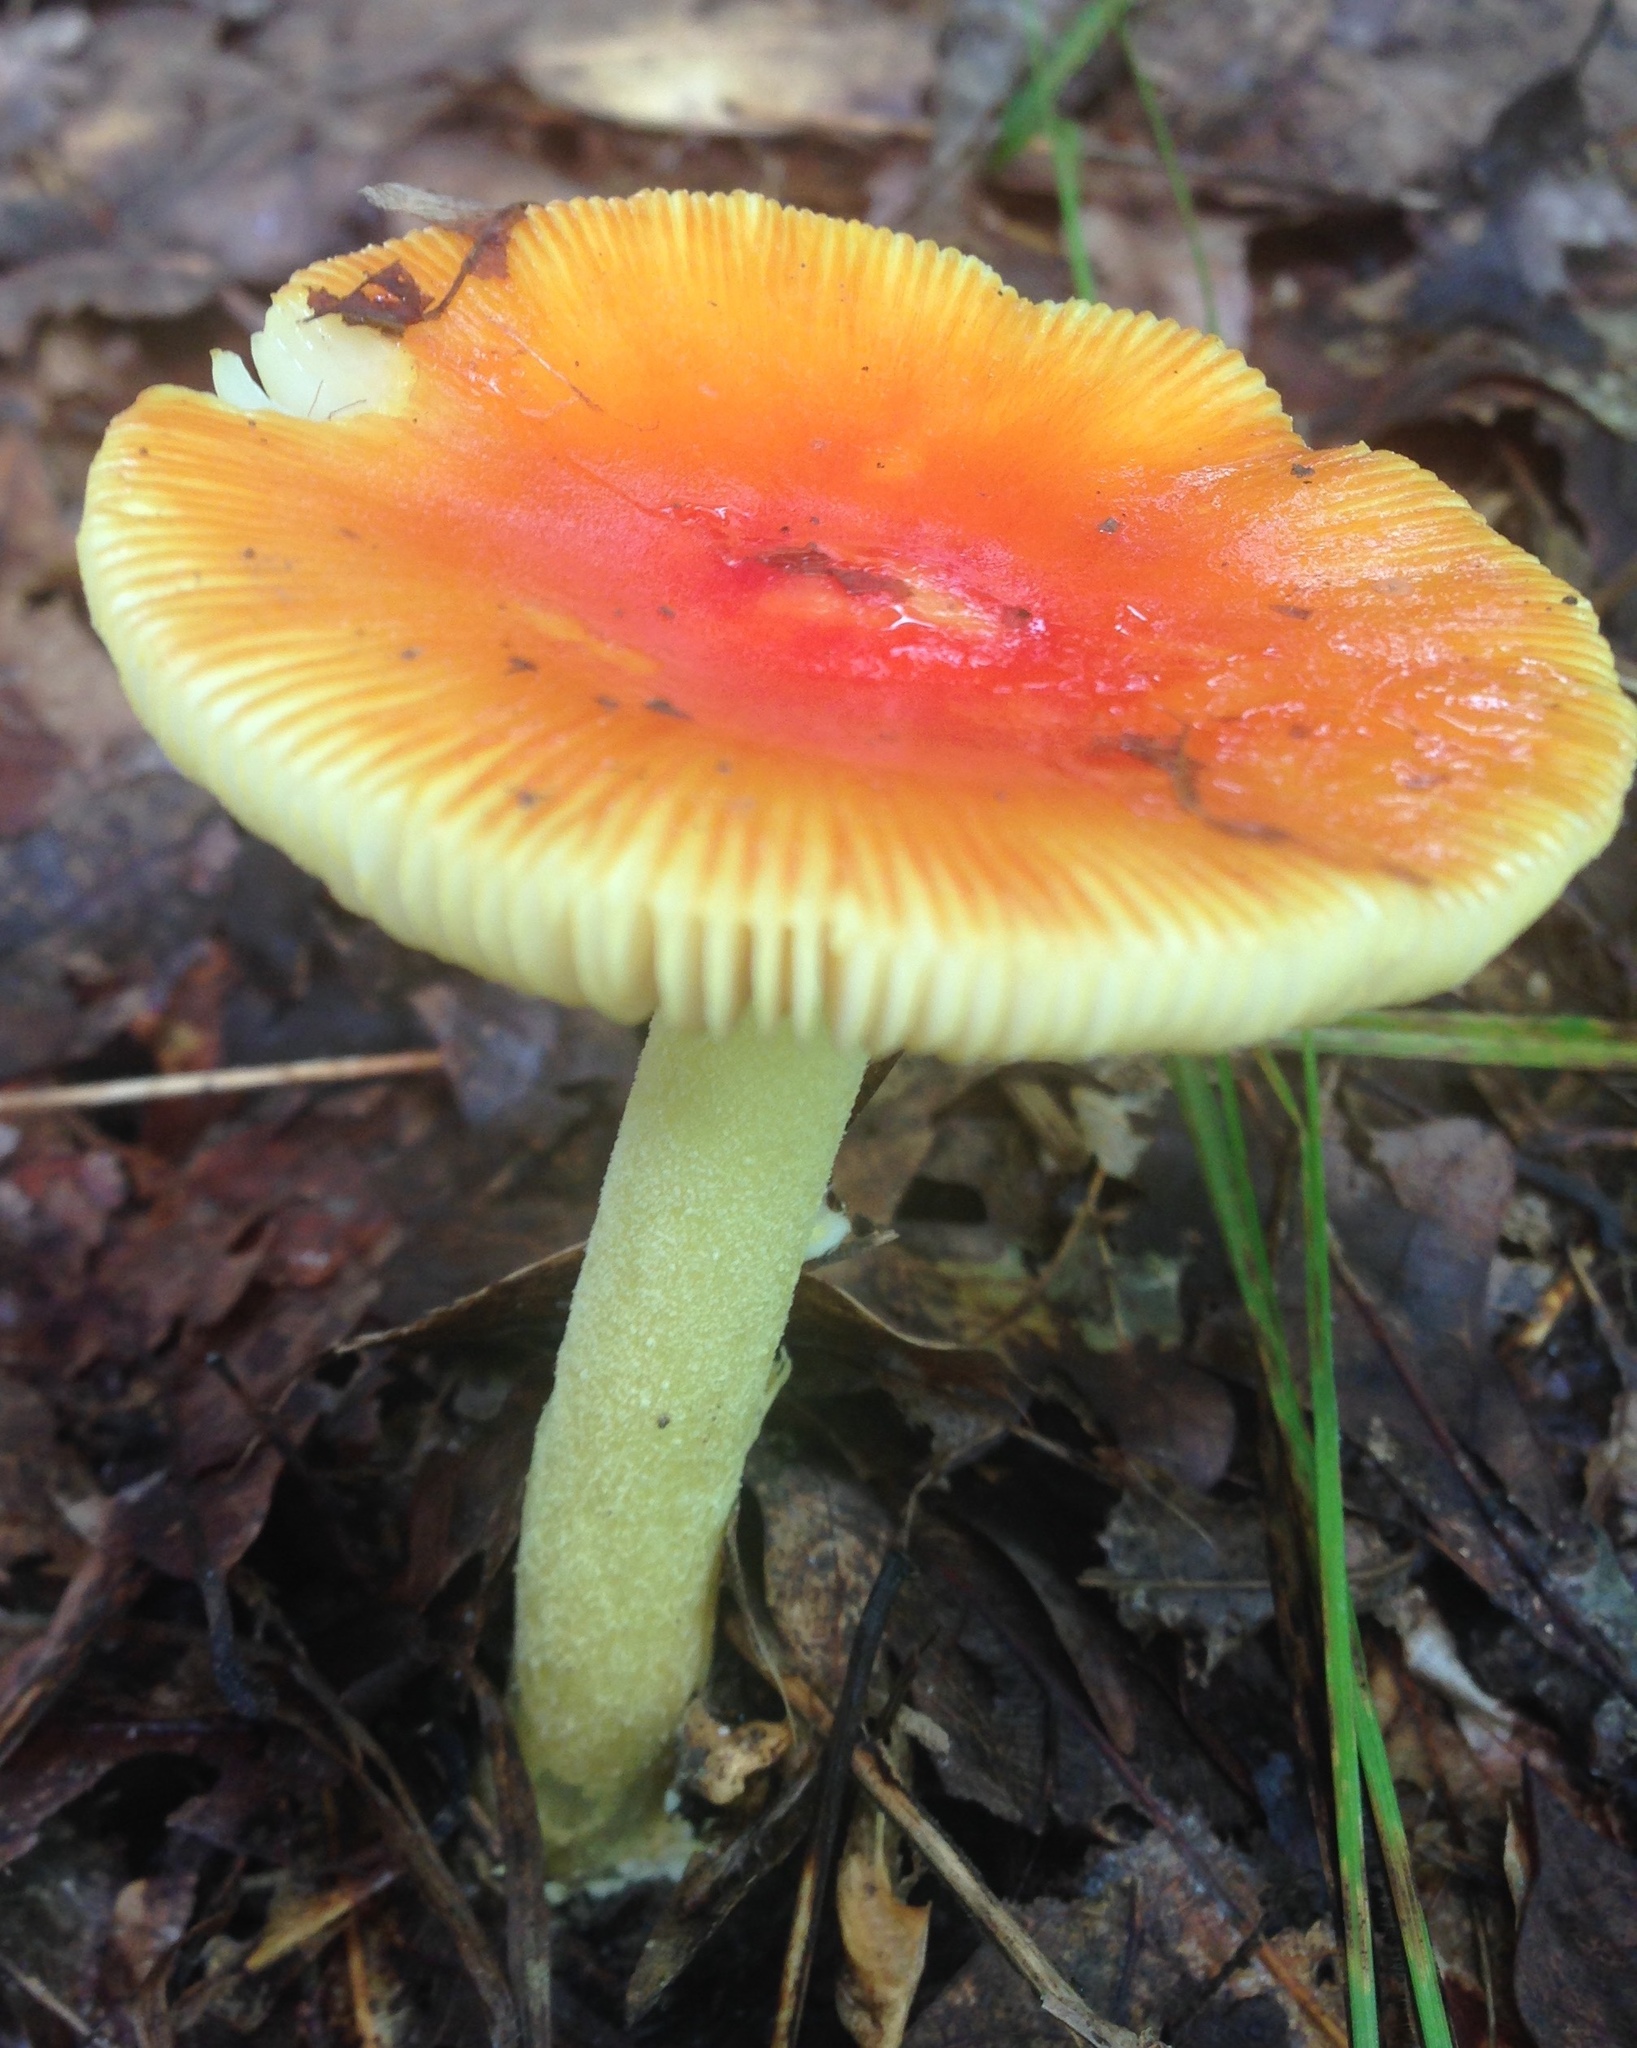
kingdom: Fungi
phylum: Basidiomycota
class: Agaricomycetes
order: Agaricales
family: Amanitaceae
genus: Amanita
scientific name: Amanita parcivolvata
